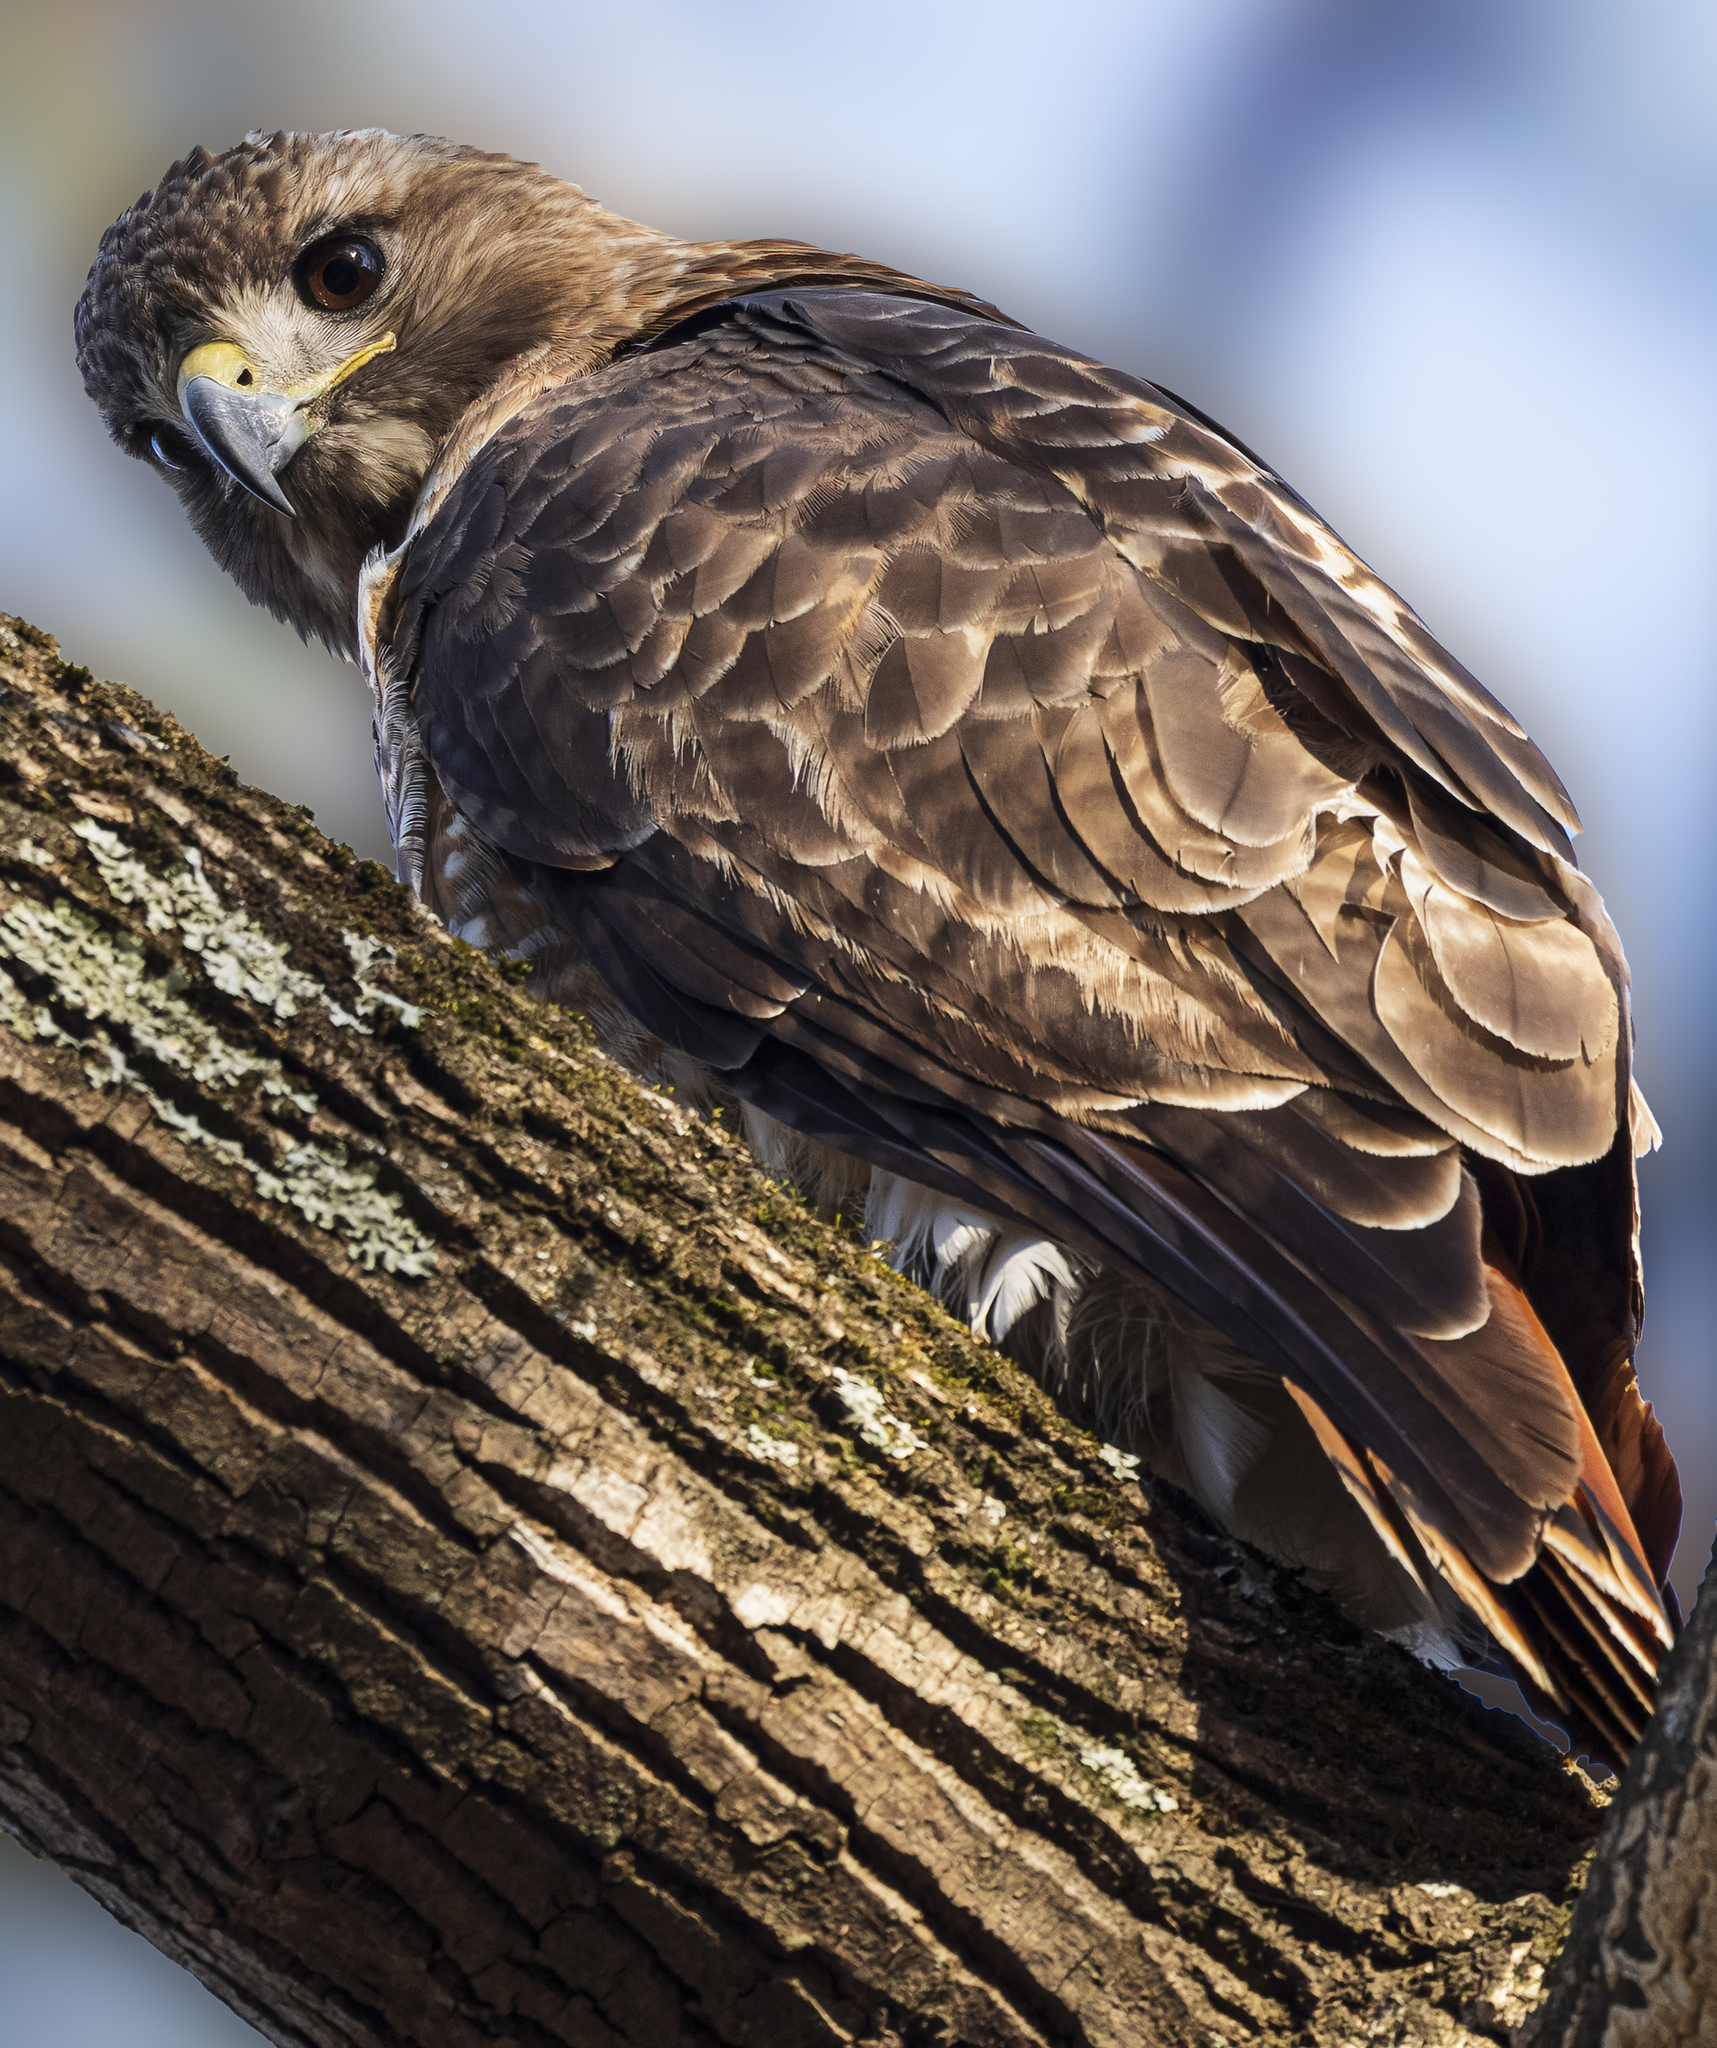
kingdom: Animalia
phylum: Chordata
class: Aves
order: Accipitriformes
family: Accipitridae
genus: Buteo
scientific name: Buteo jamaicensis
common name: Red-tailed hawk
